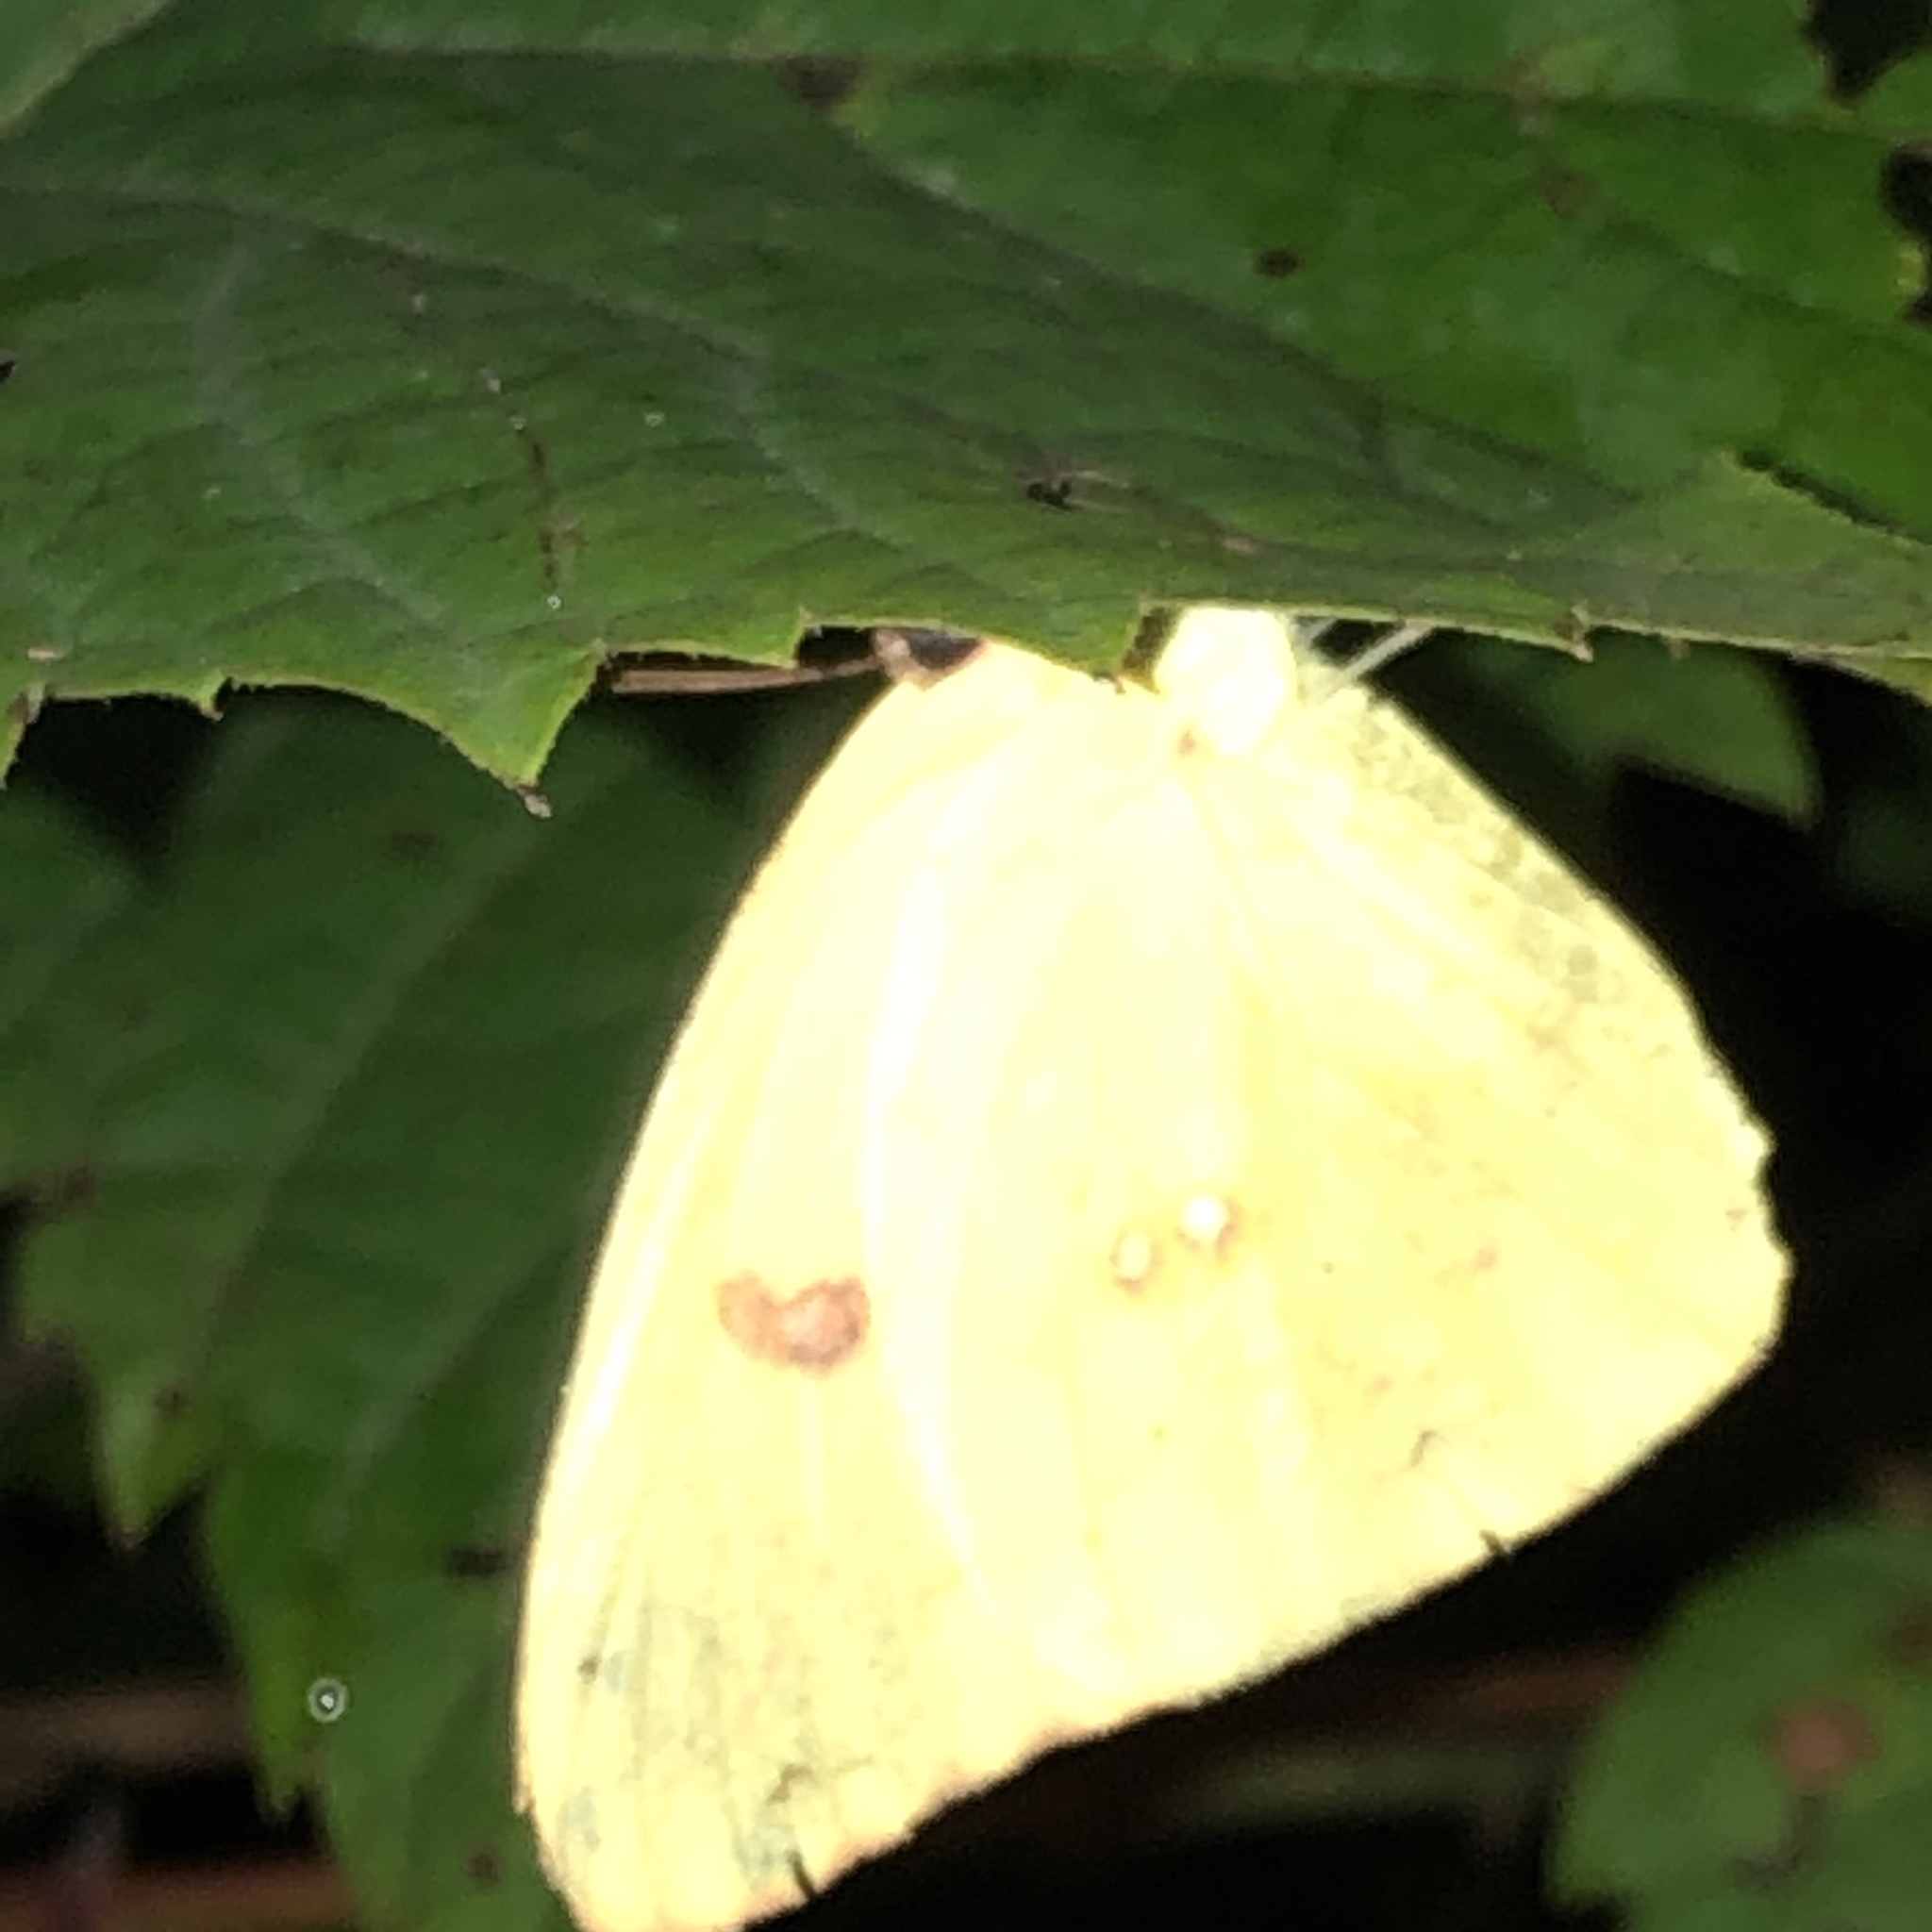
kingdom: Animalia
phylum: Arthropoda
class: Insecta
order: Lepidoptera
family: Pieridae
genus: Phoebis
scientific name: Phoebis sennae
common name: Cloudless sulphur
